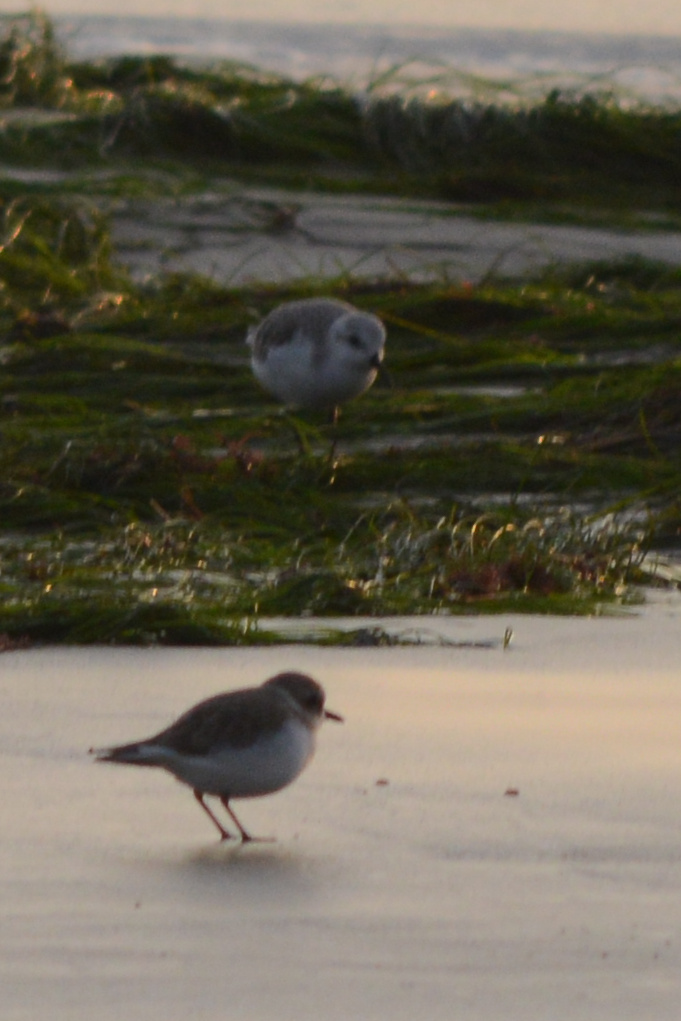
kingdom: Animalia
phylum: Chordata
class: Aves
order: Charadriiformes
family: Scolopacidae
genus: Calidris
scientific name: Calidris alba
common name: Sanderling
